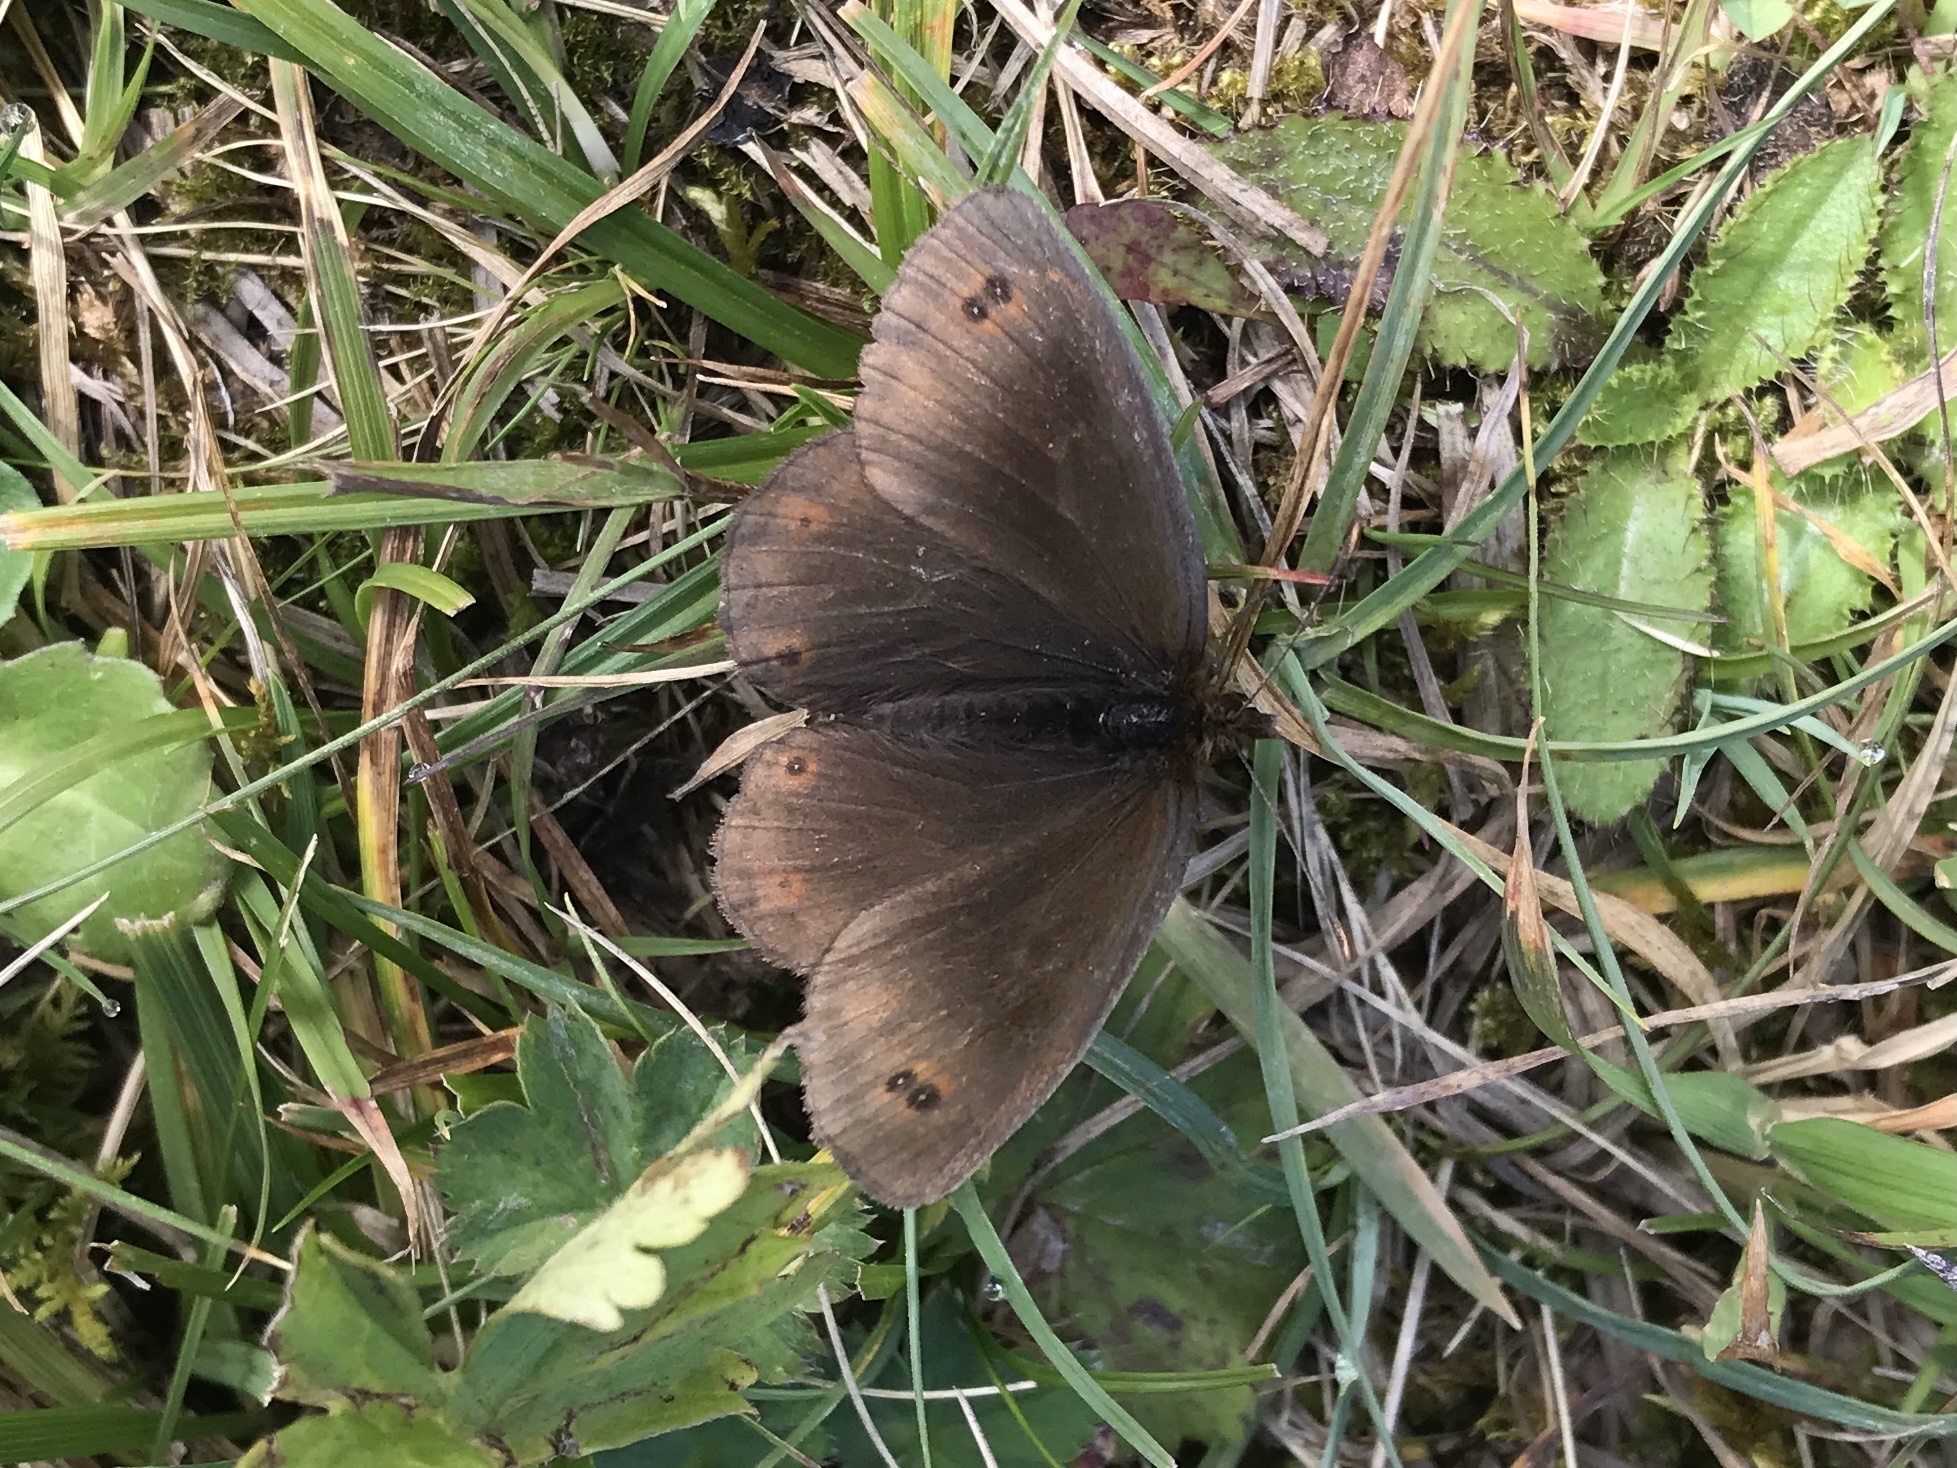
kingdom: Animalia
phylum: Arthropoda
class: Insecta
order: Lepidoptera
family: Nymphalidae
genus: Erebia
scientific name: Erebia pronoe
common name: Water ringlet
